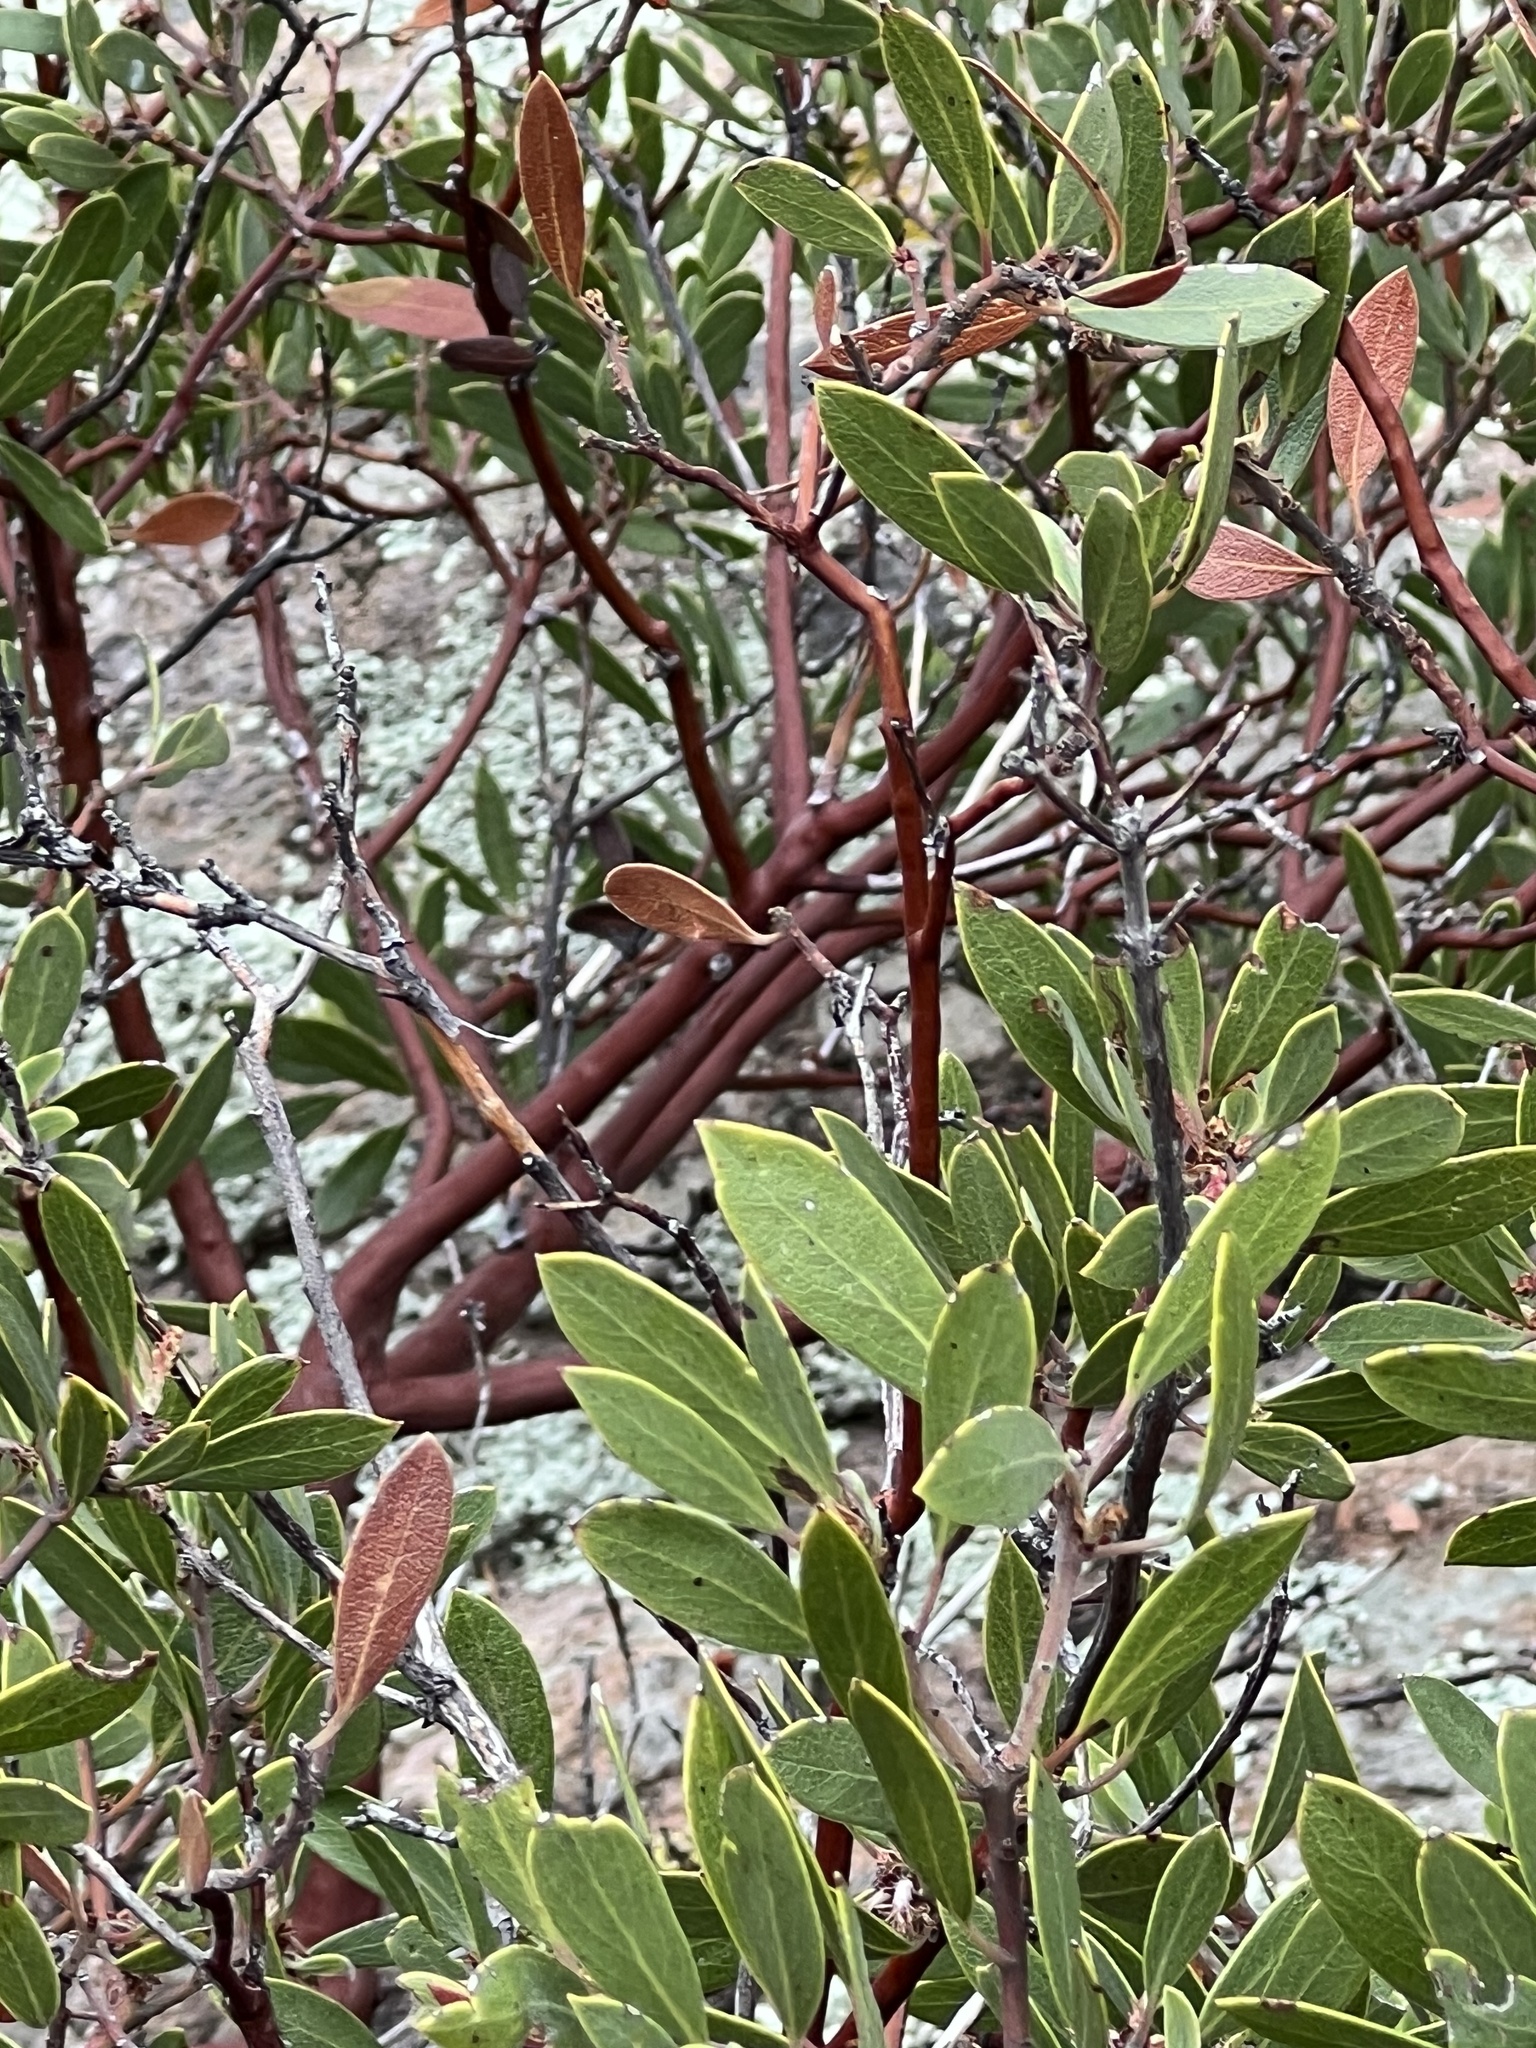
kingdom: Plantae
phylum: Tracheophyta
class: Magnoliopsida
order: Ericales
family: Ericaceae
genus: Arctostaphylos
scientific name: Arctostaphylos pungens
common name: Mexican manzanita
